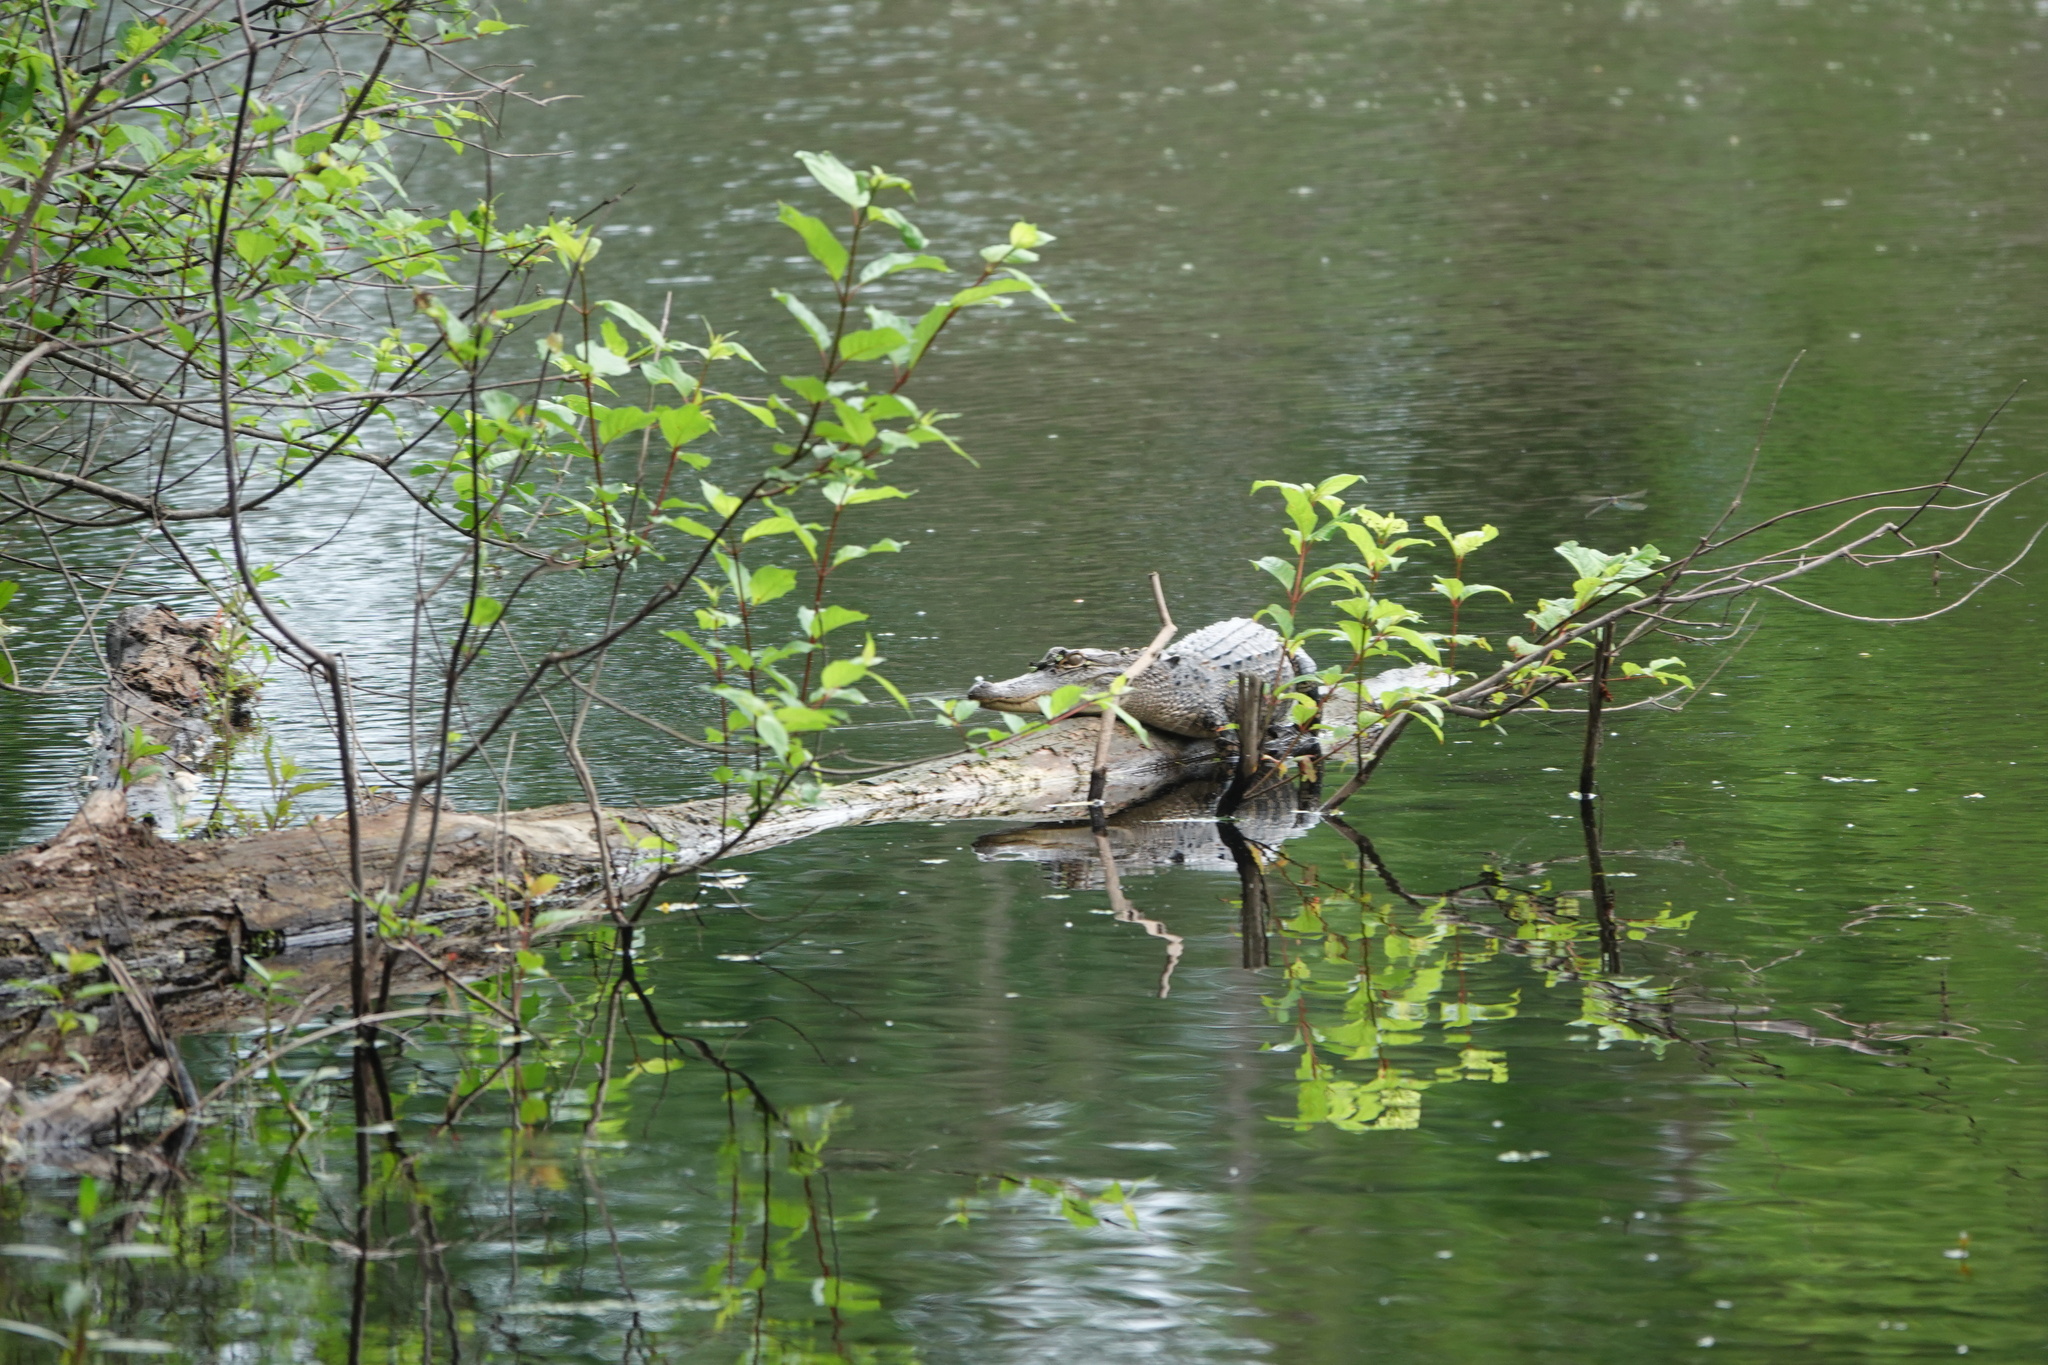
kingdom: Animalia
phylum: Chordata
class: Crocodylia
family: Alligatoridae
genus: Alligator
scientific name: Alligator mississippiensis
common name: American alligator
